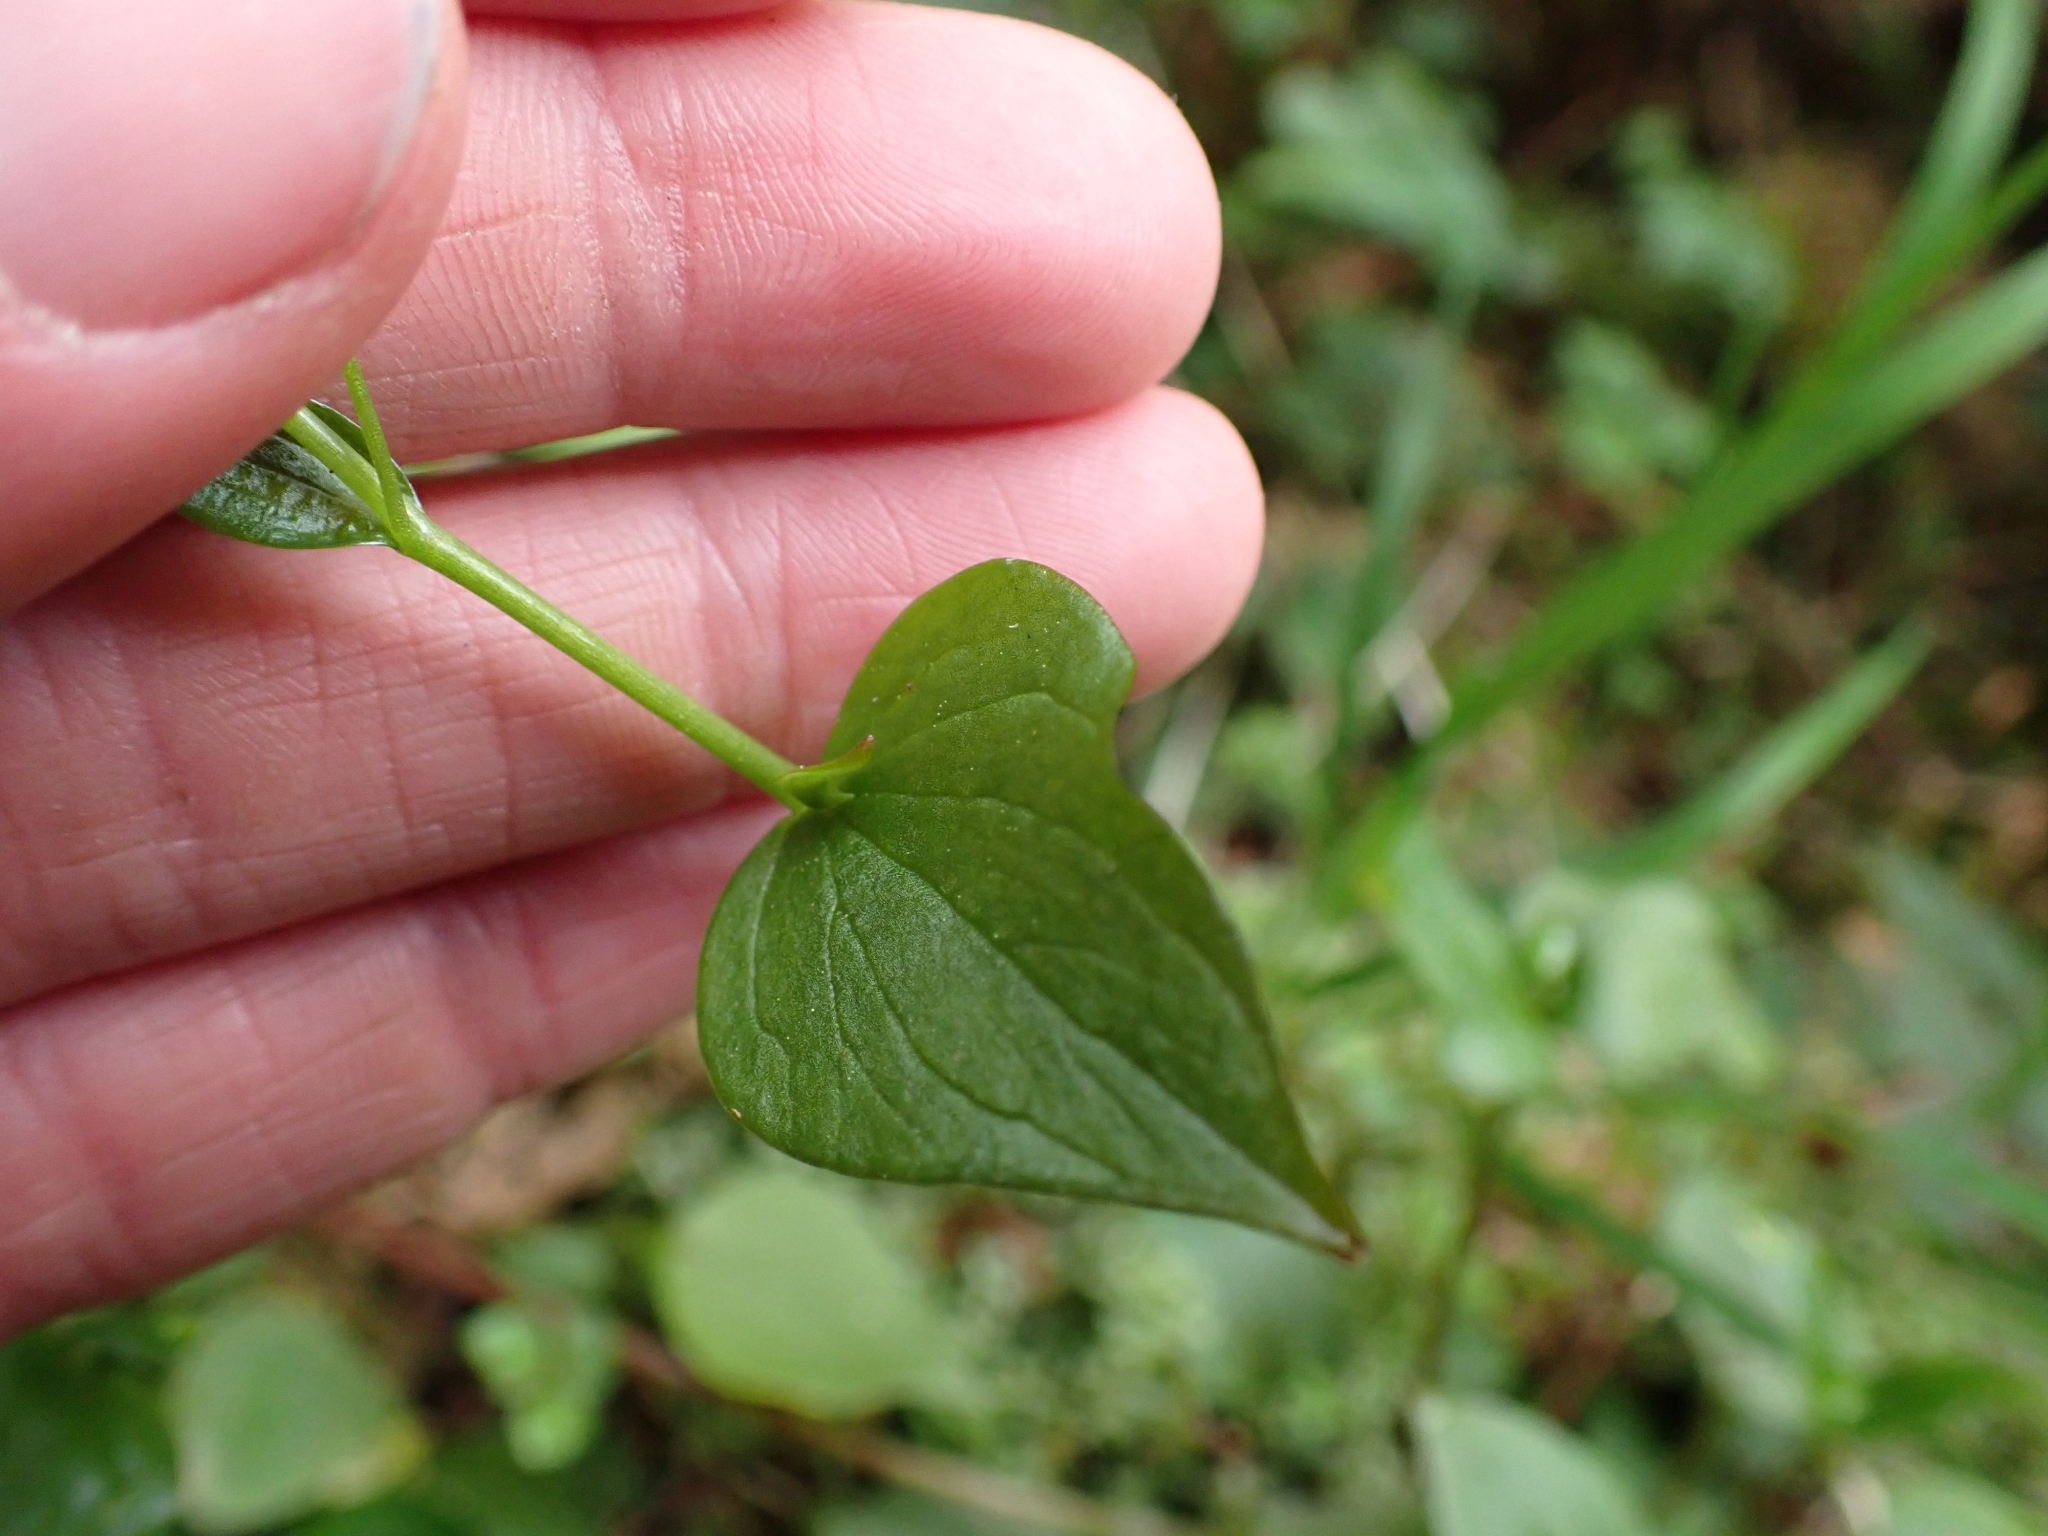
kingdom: Plantae
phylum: Tracheophyta
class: Magnoliopsida
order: Caryophyllales
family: Montiaceae
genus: Claytonia
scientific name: Claytonia sibirica
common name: Pink purslane
